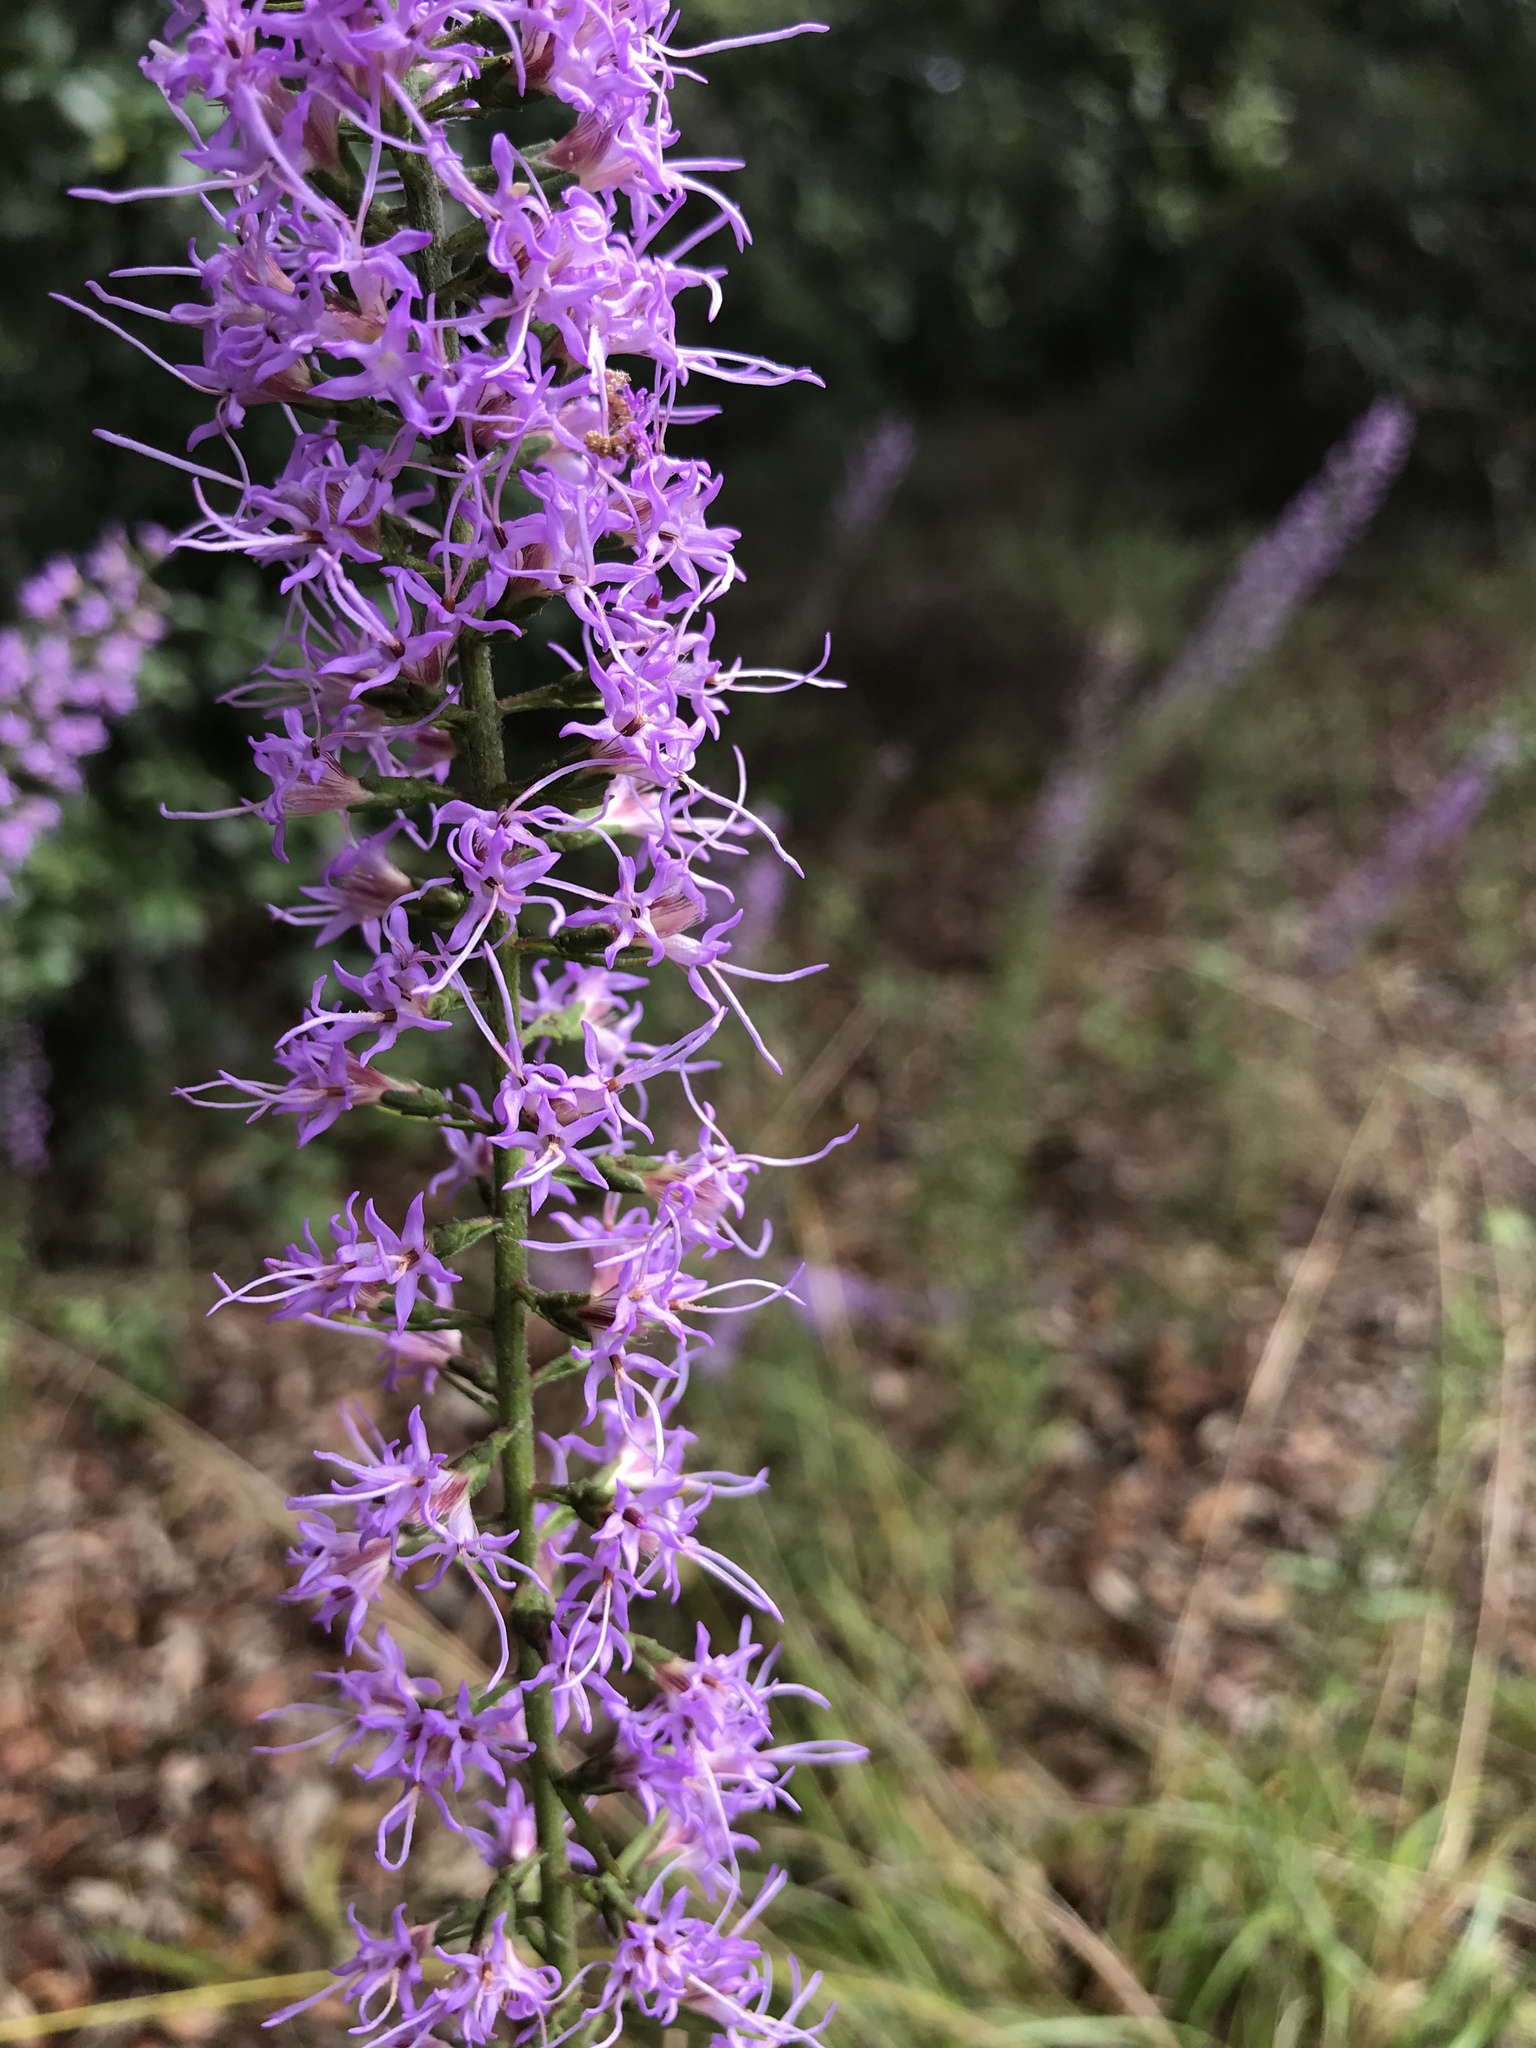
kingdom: Plantae
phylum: Tracheophyta
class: Magnoliopsida
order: Asterales
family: Asteraceae
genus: Liatris
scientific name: Liatris gracilis
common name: Slender gayfeather
